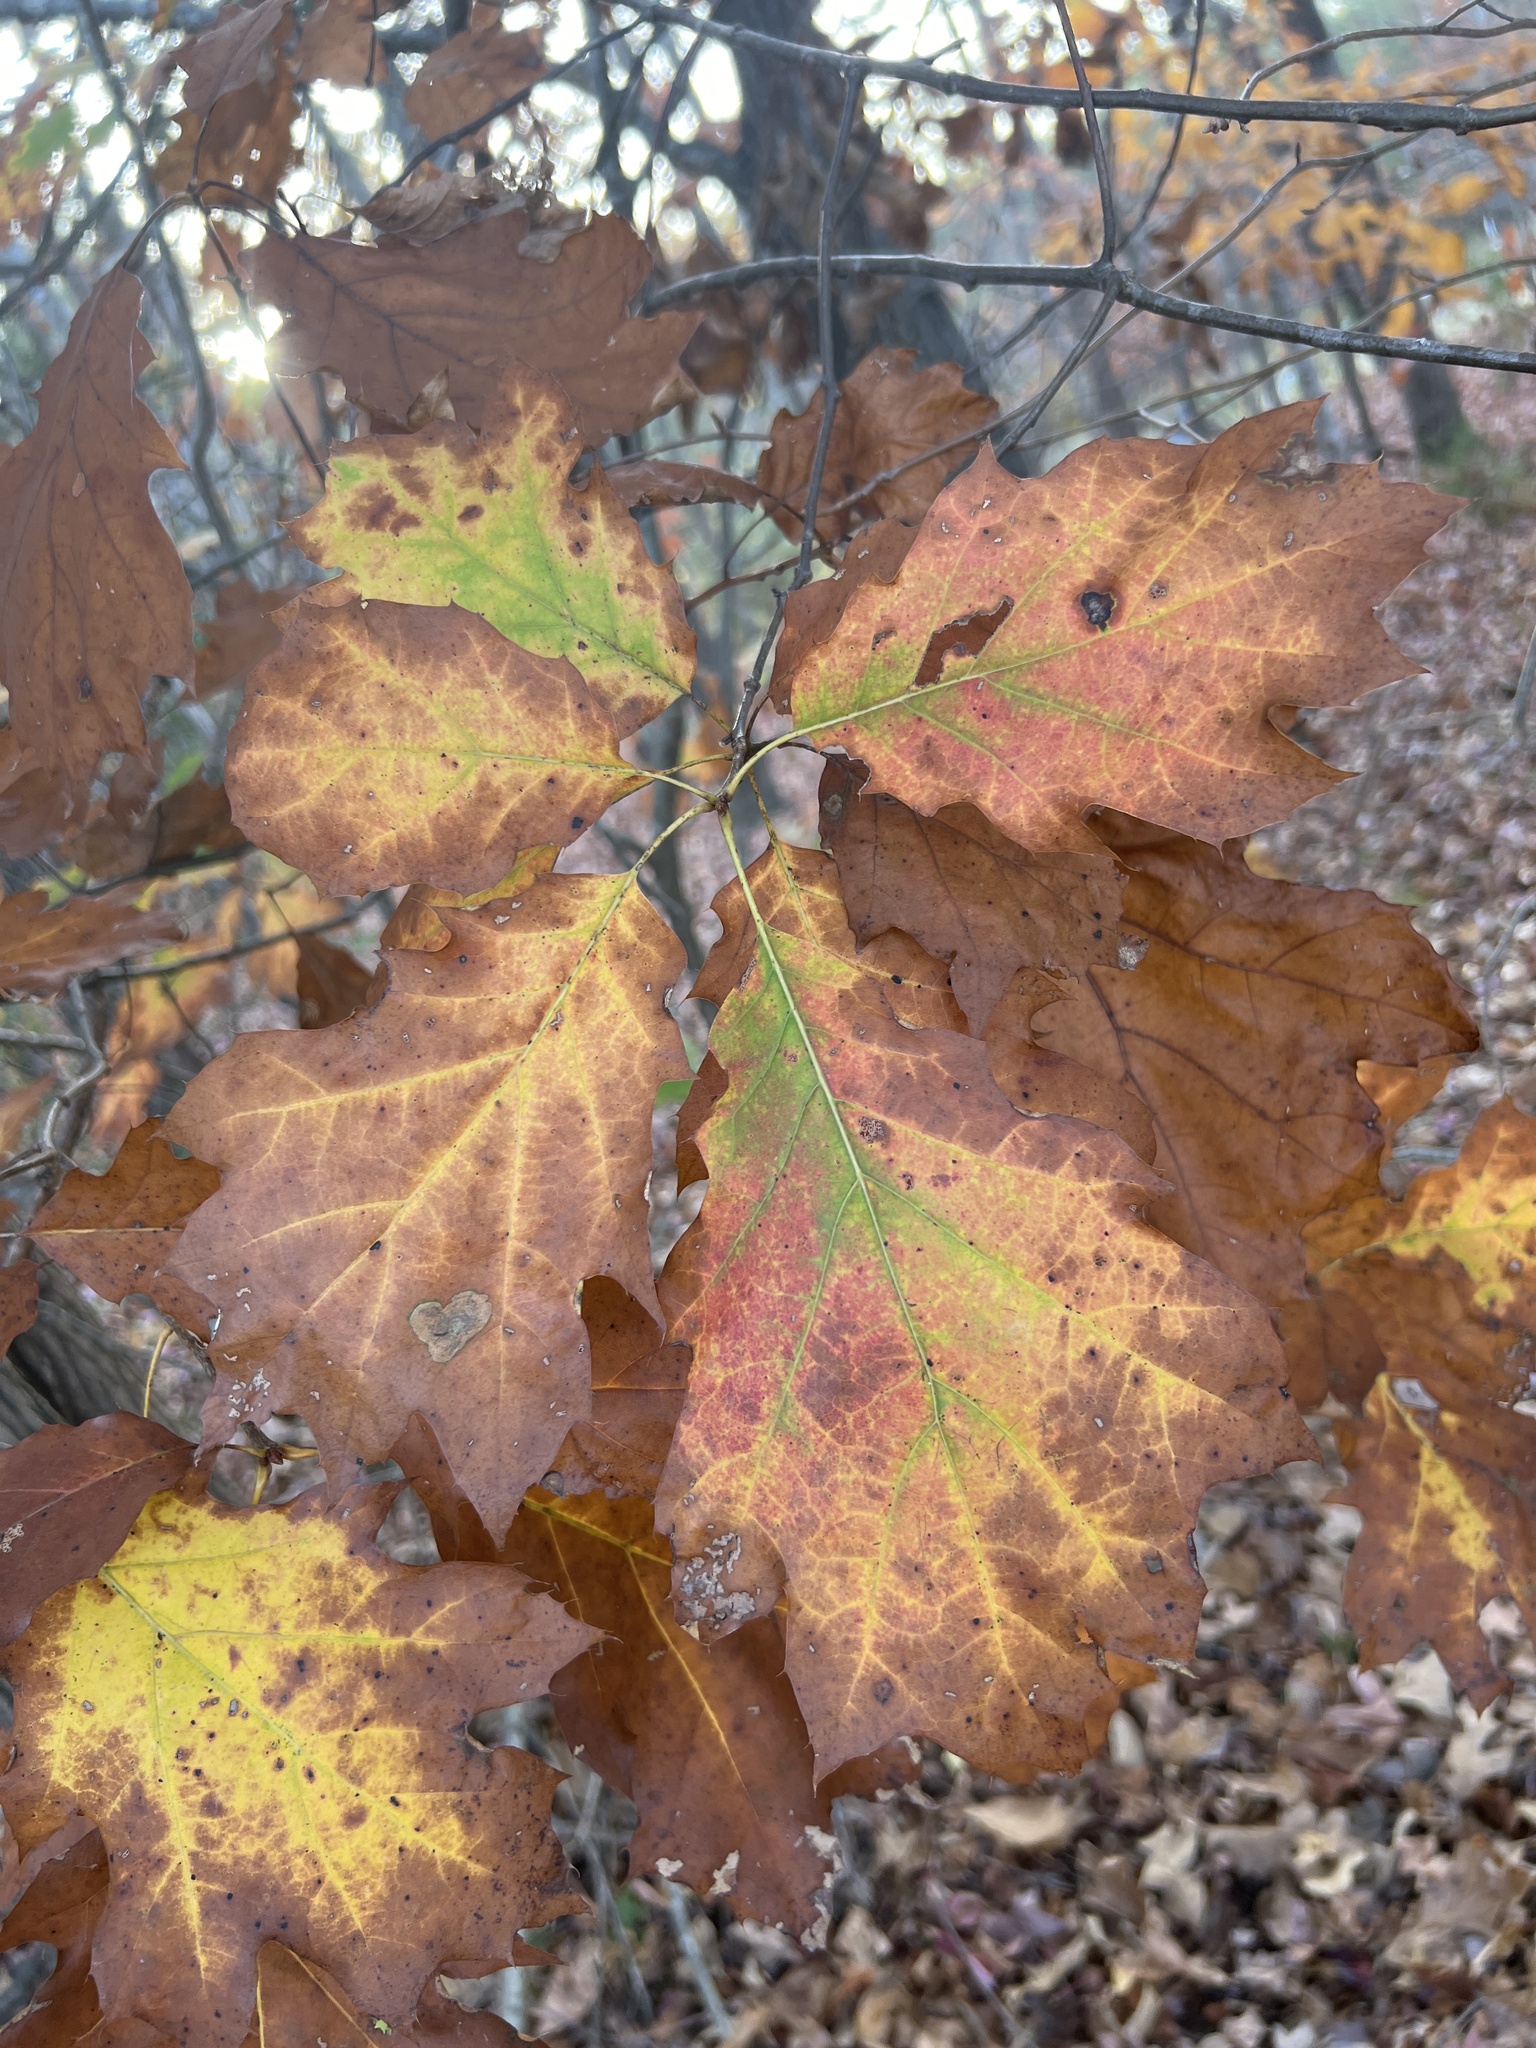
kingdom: Plantae
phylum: Tracheophyta
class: Magnoliopsida
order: Fagales
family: Fagaceae
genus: Quercus
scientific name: Quercus rubra
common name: Red oak
